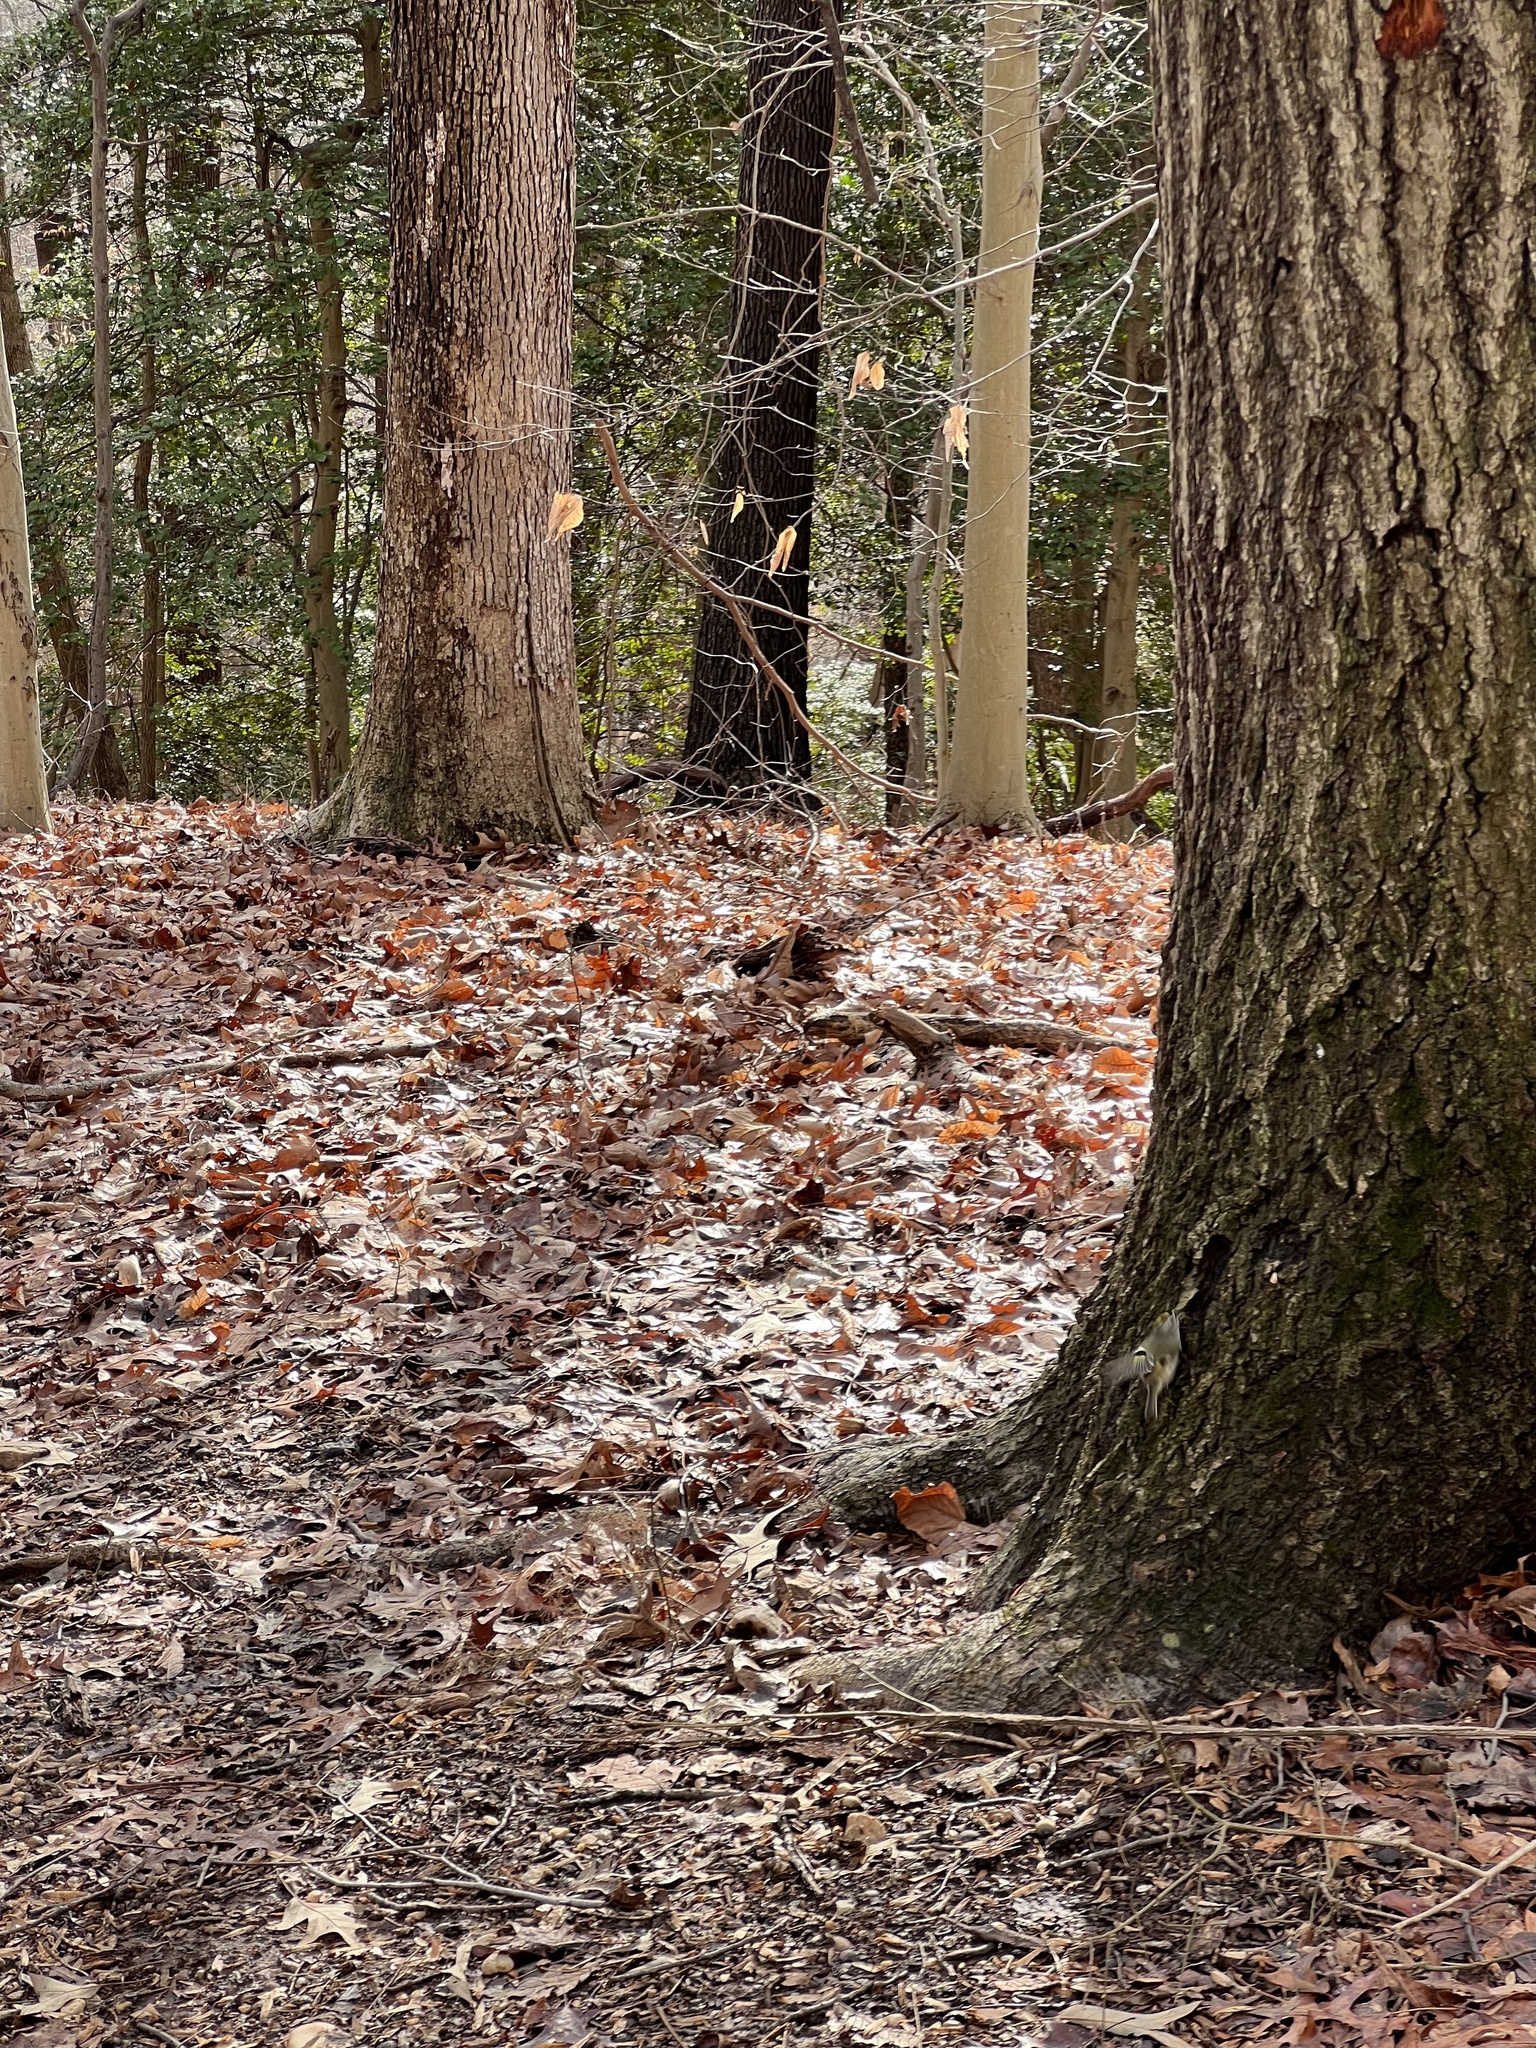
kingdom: Animalia
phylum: Chordata
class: Aves
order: Passeriformes
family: Regulidae
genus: Regulus
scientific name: Regulus satrapa
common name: Golden-crowned kinglet
